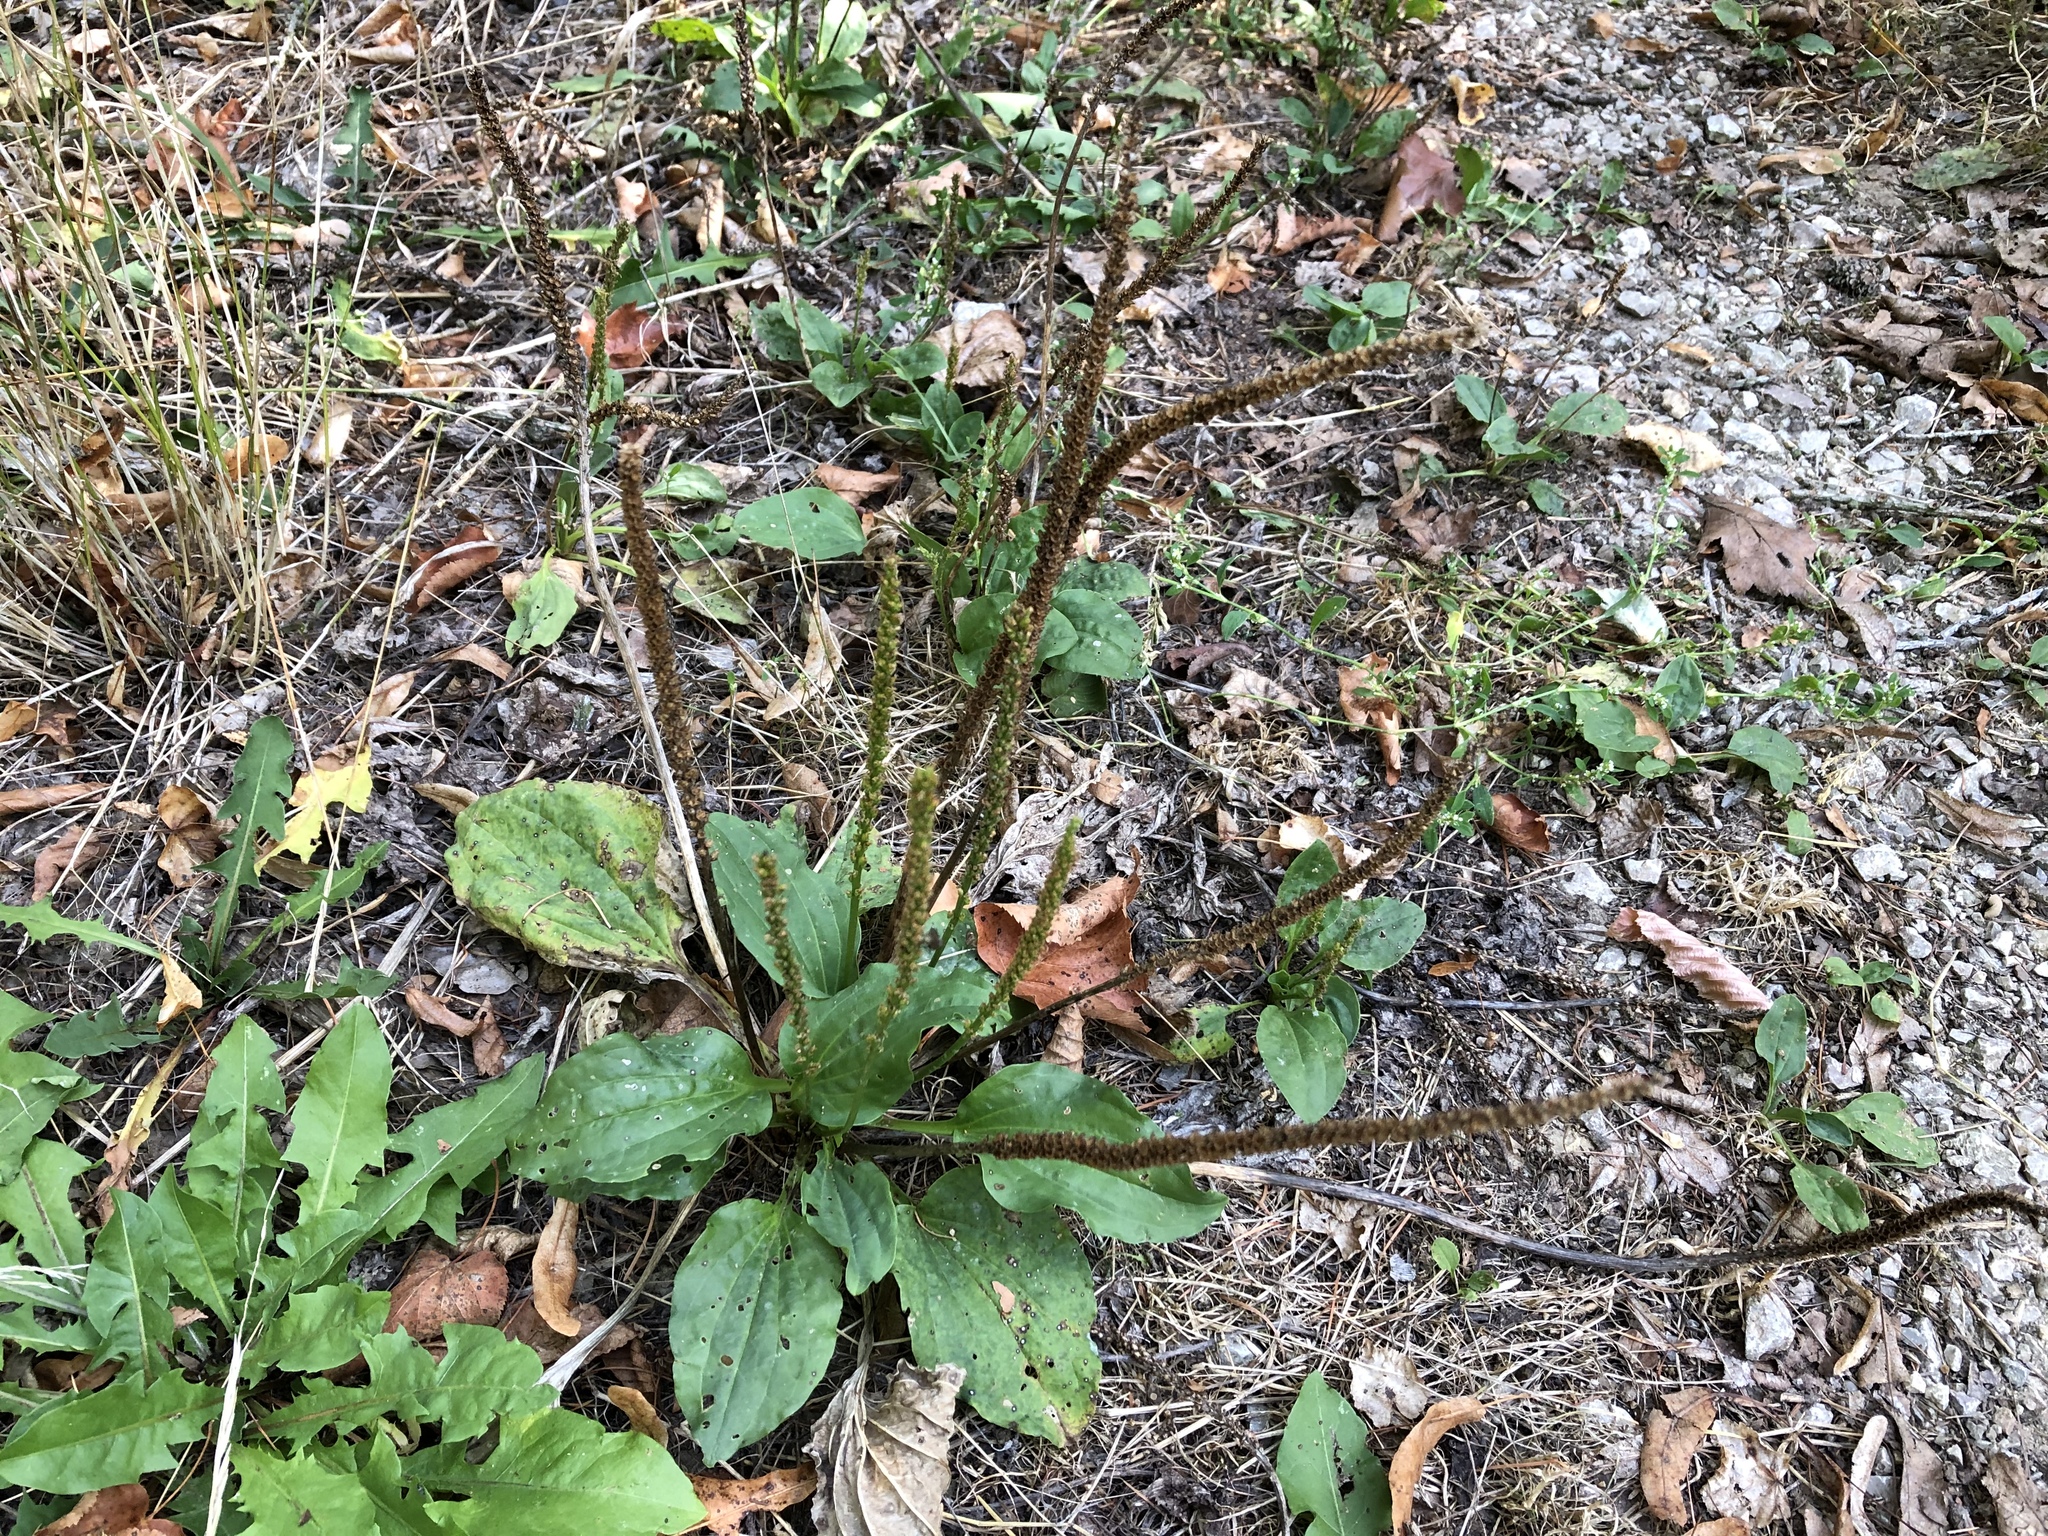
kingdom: Plantae
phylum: Tracheophyta
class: Magnoliopsida
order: Lamiales
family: Plantaginaceae
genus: Plantago
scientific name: Plantago major
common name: Common plantain
